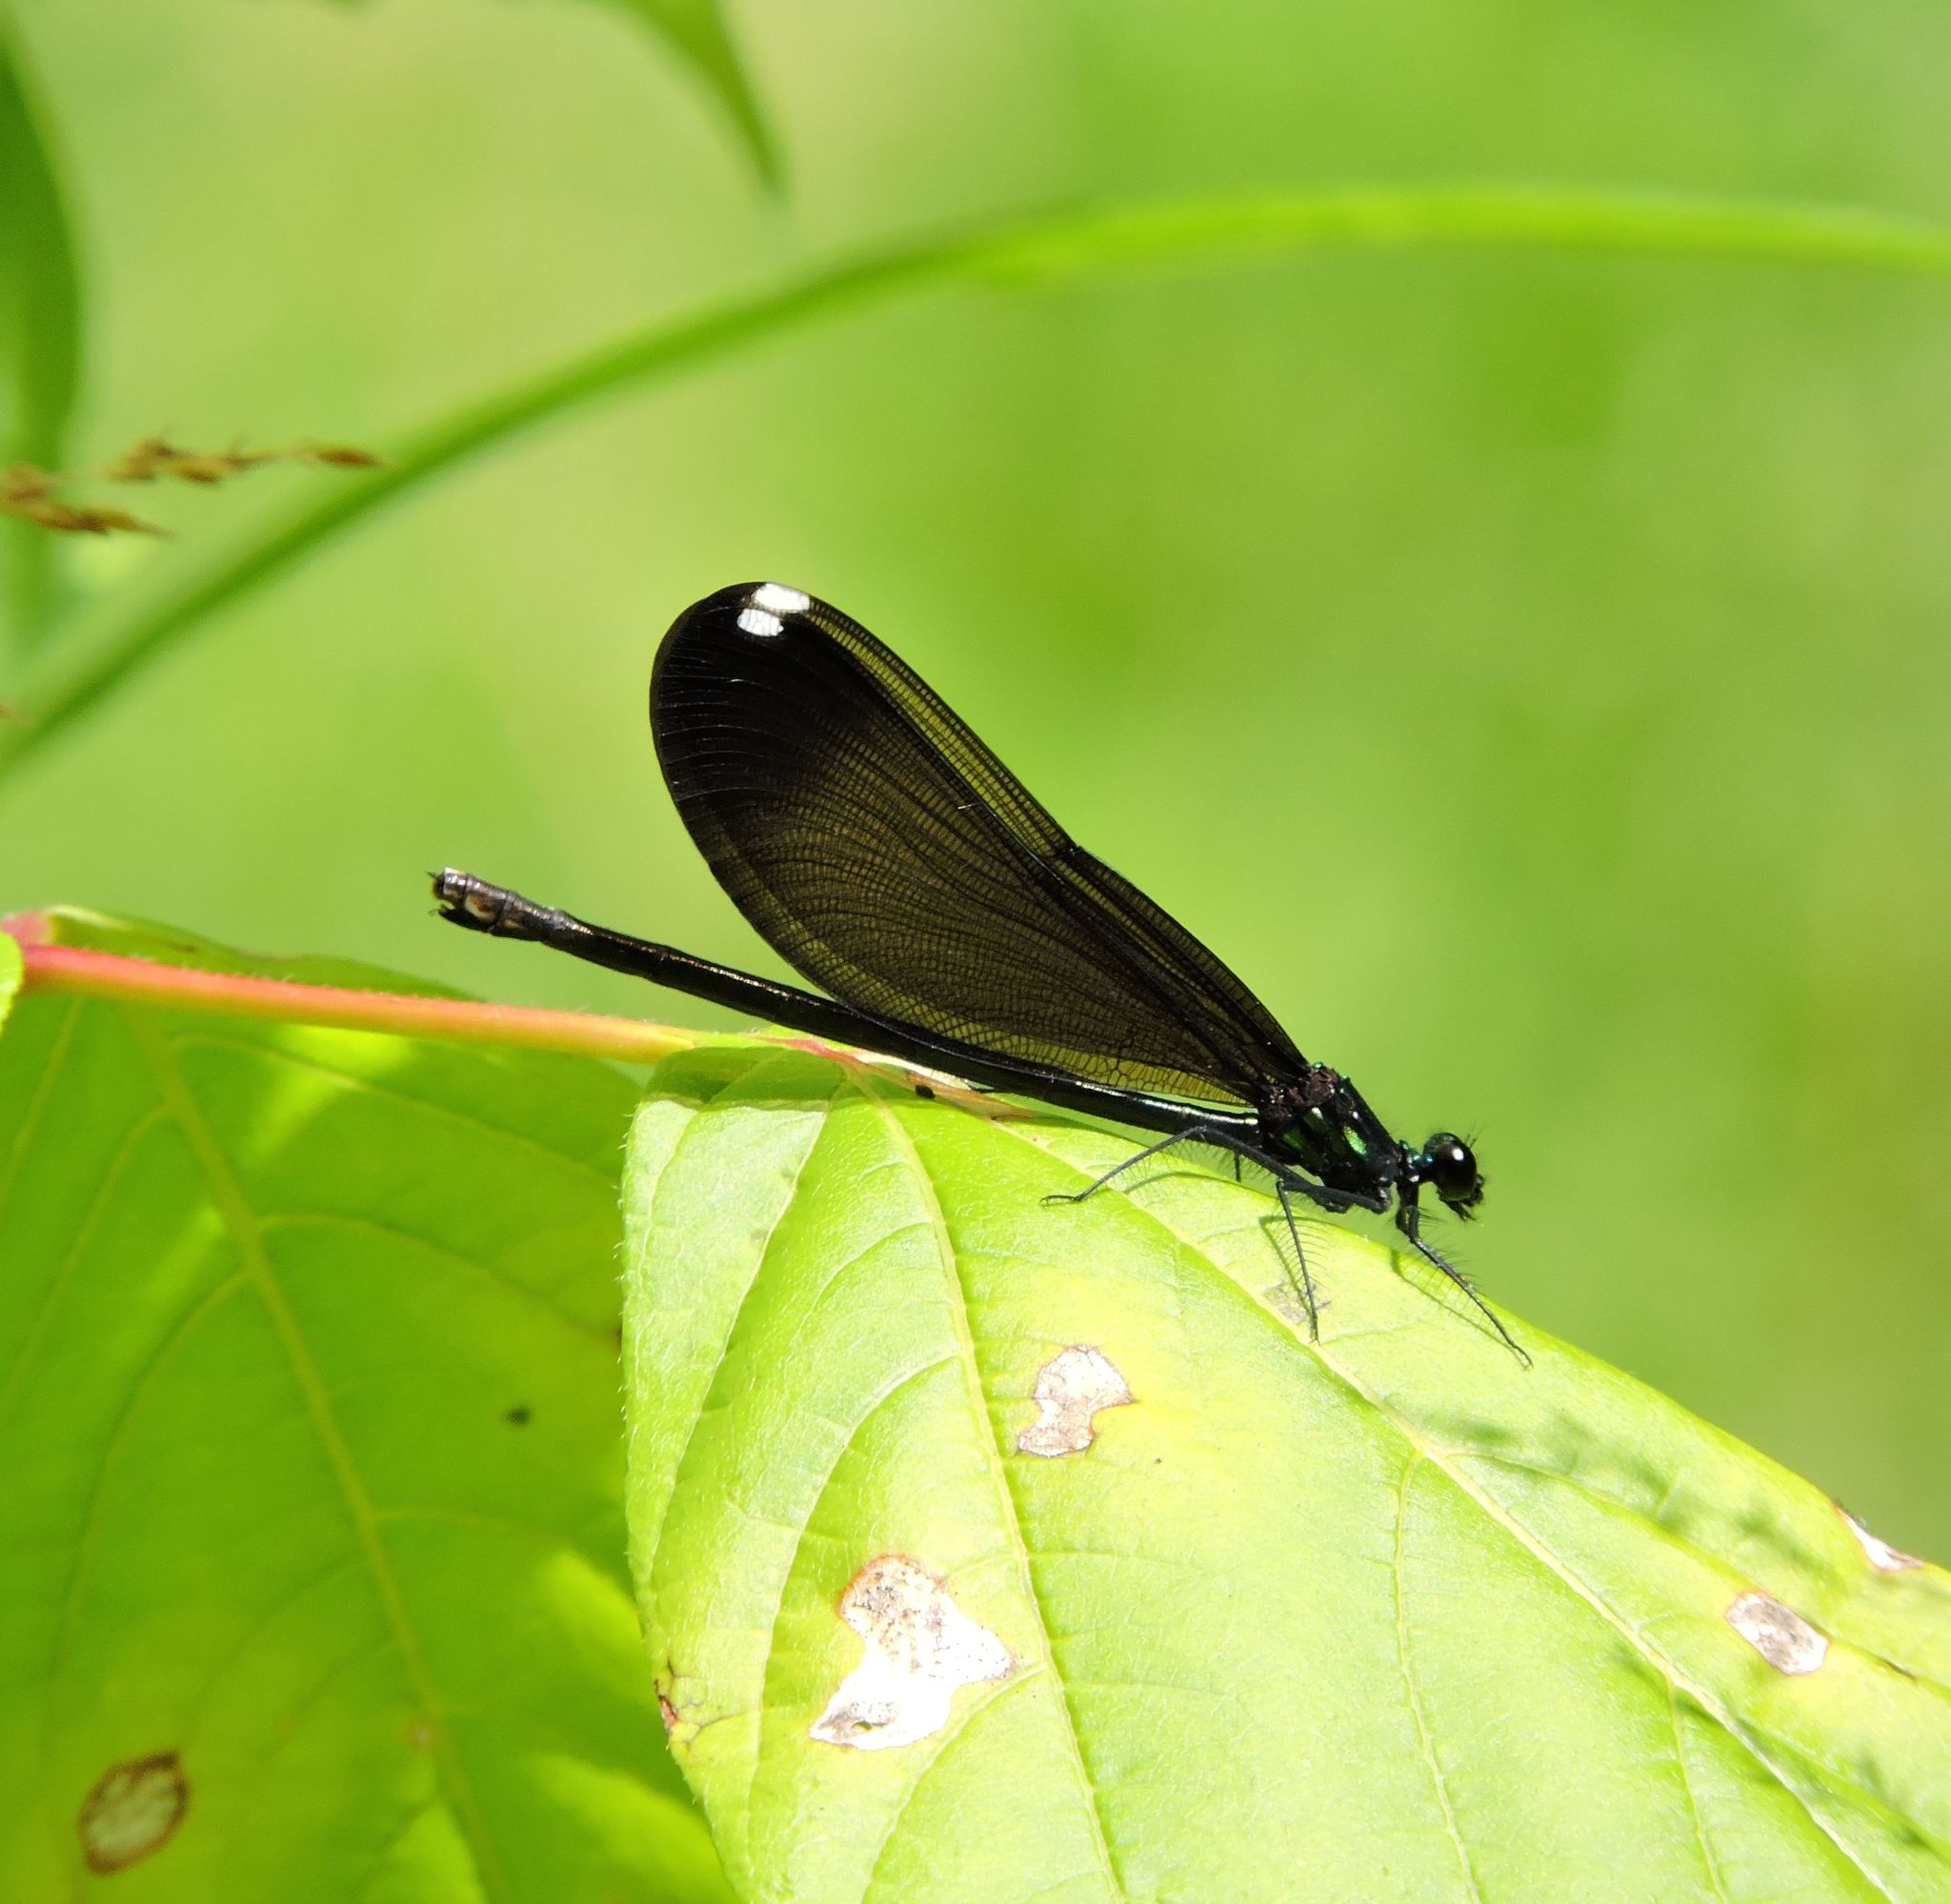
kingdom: Animalia
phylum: Arthropoda
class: Insecta
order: Odonata
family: Calopterygidae
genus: Calopteryx
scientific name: Calopteryx maculata
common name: Ebony jewelwing
